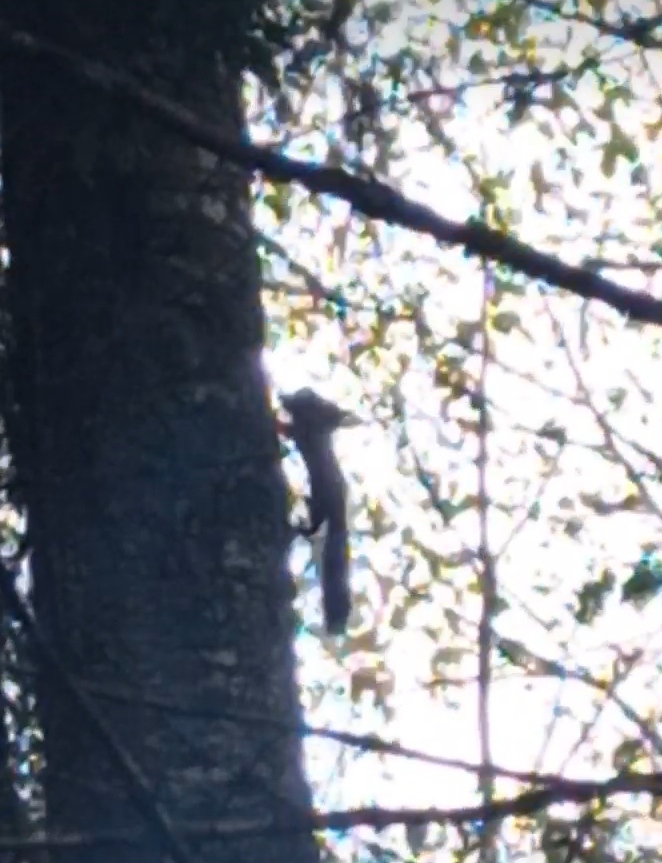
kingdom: Animalia
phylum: Chordata
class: Mammalia
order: Rodentia
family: Sciuridae
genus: Sciurus
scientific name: Sciurus vulgaris
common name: Eurasian red squirrel
